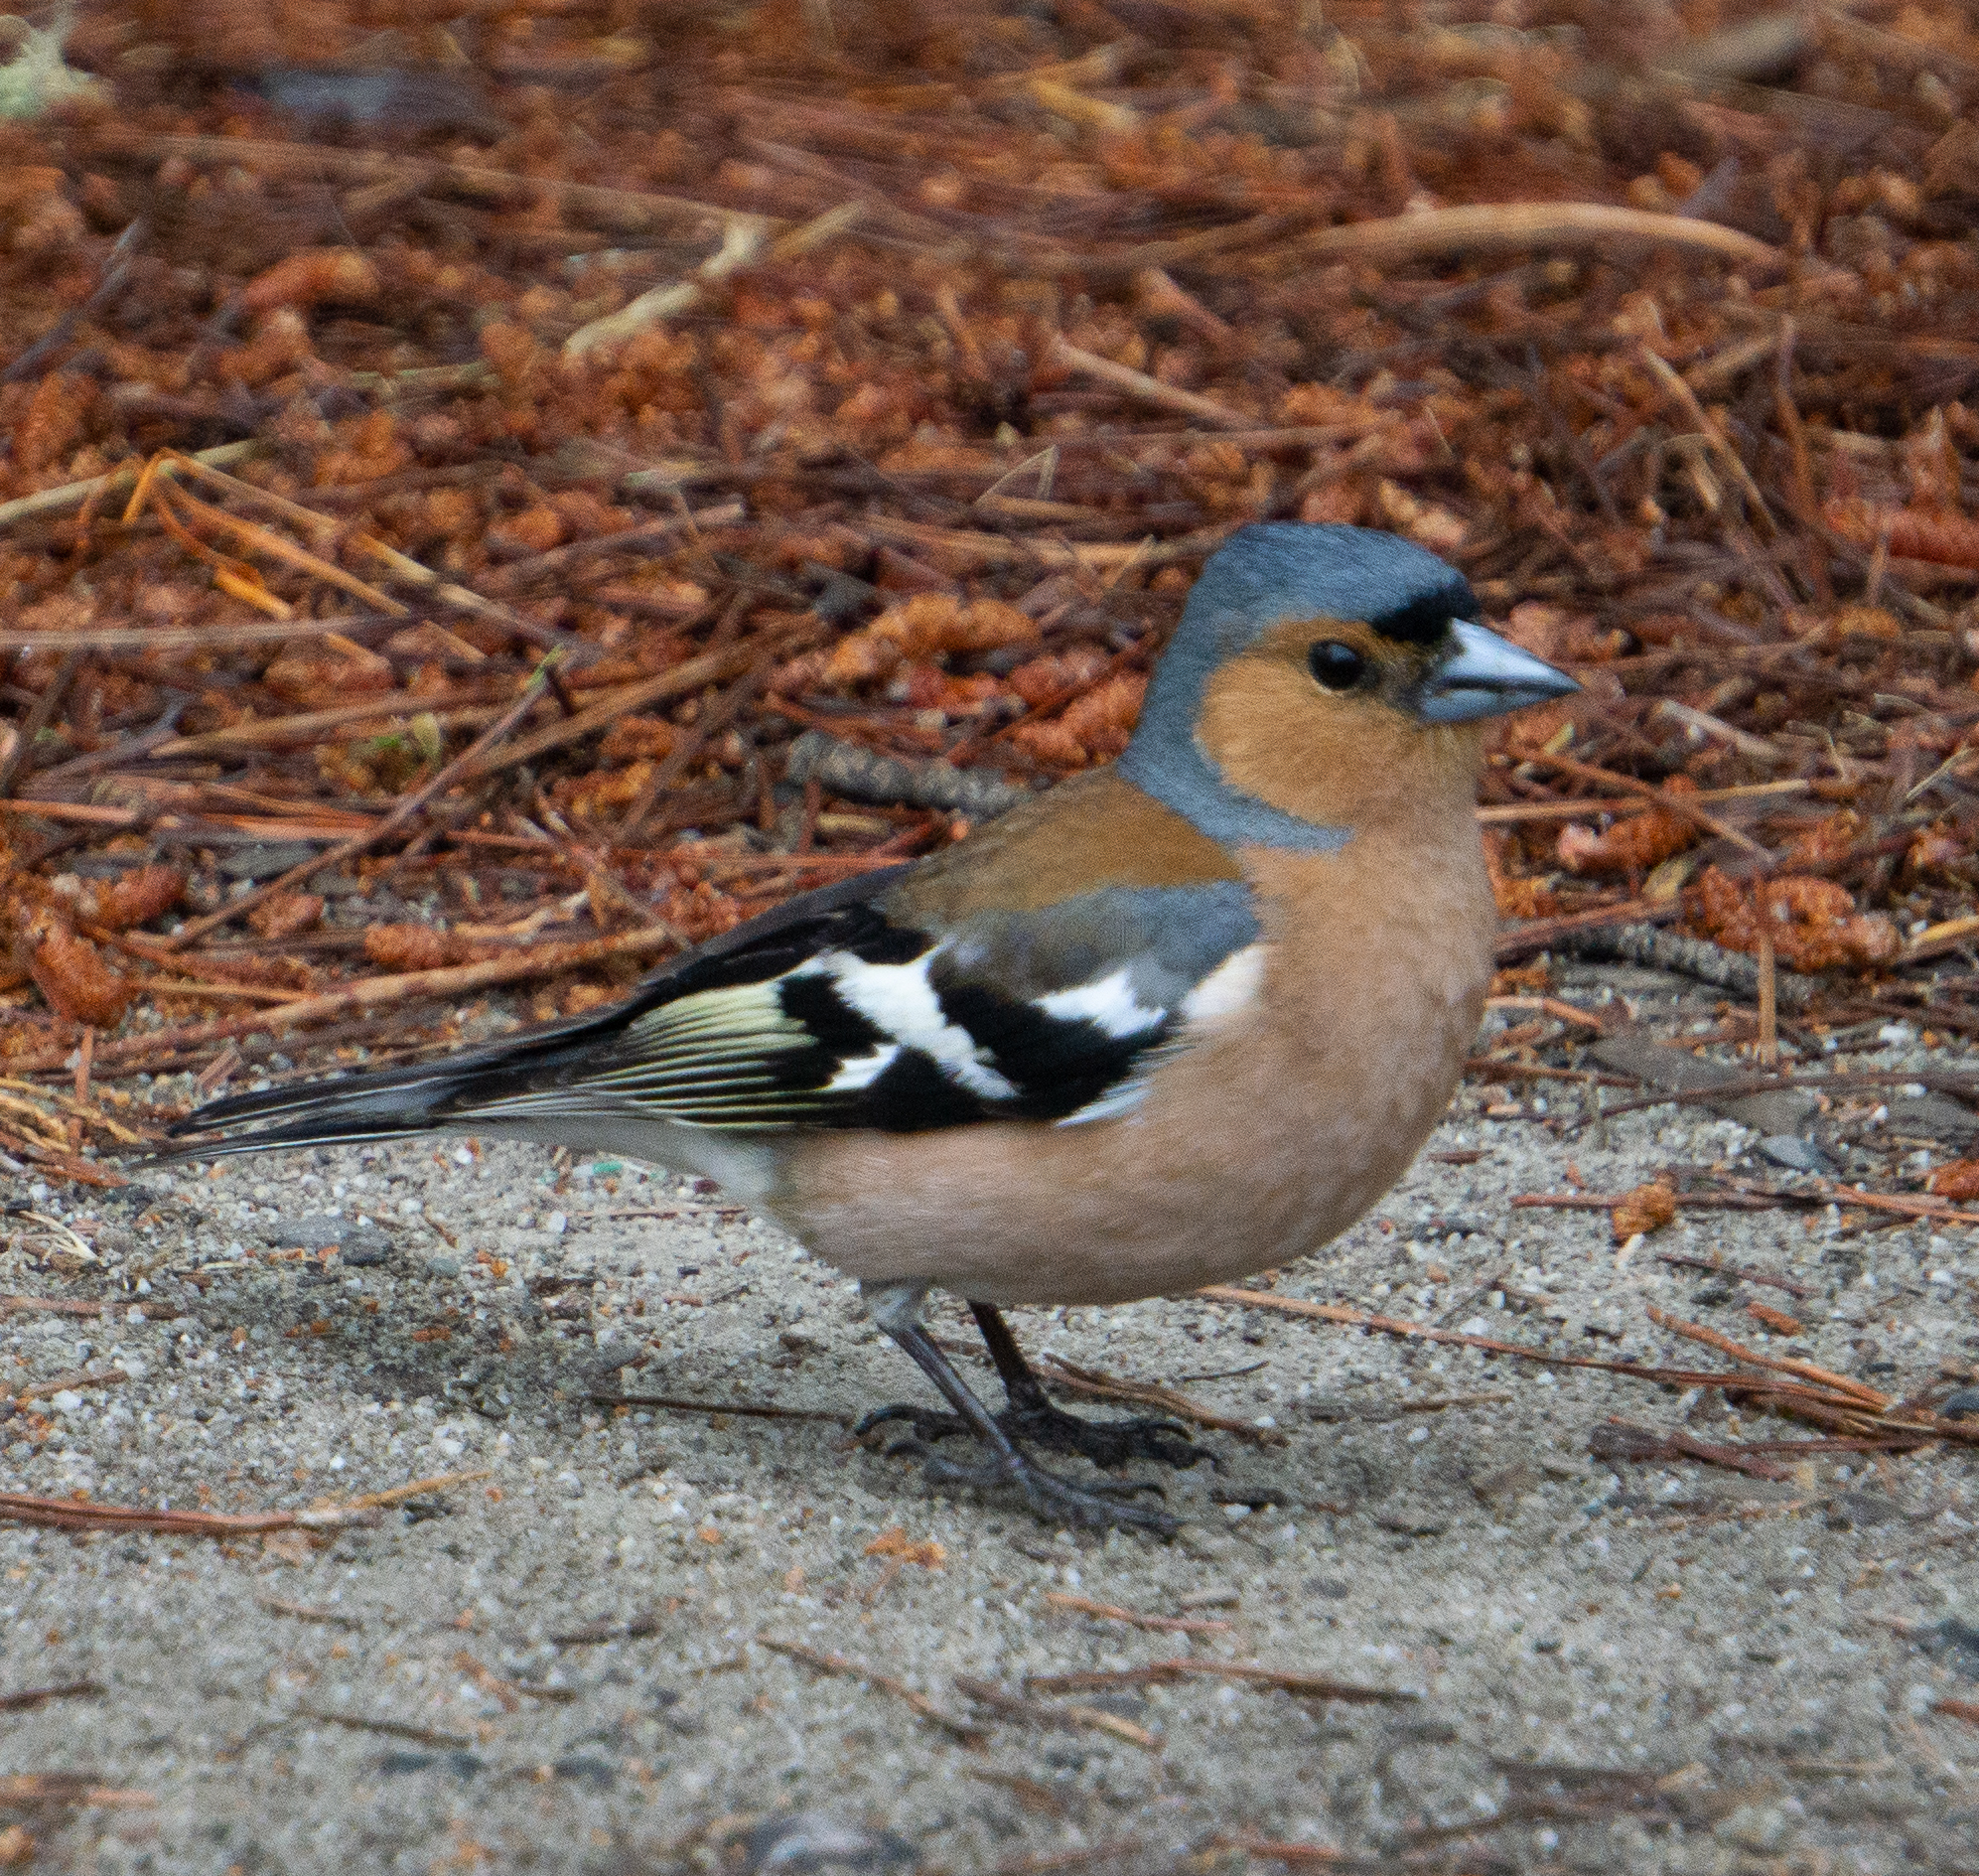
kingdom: Animalia
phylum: Chordata
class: Aves
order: Passeriformes
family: Fringillidae
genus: Fringilla
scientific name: Fringilla coelebs
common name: Common chaffinch
